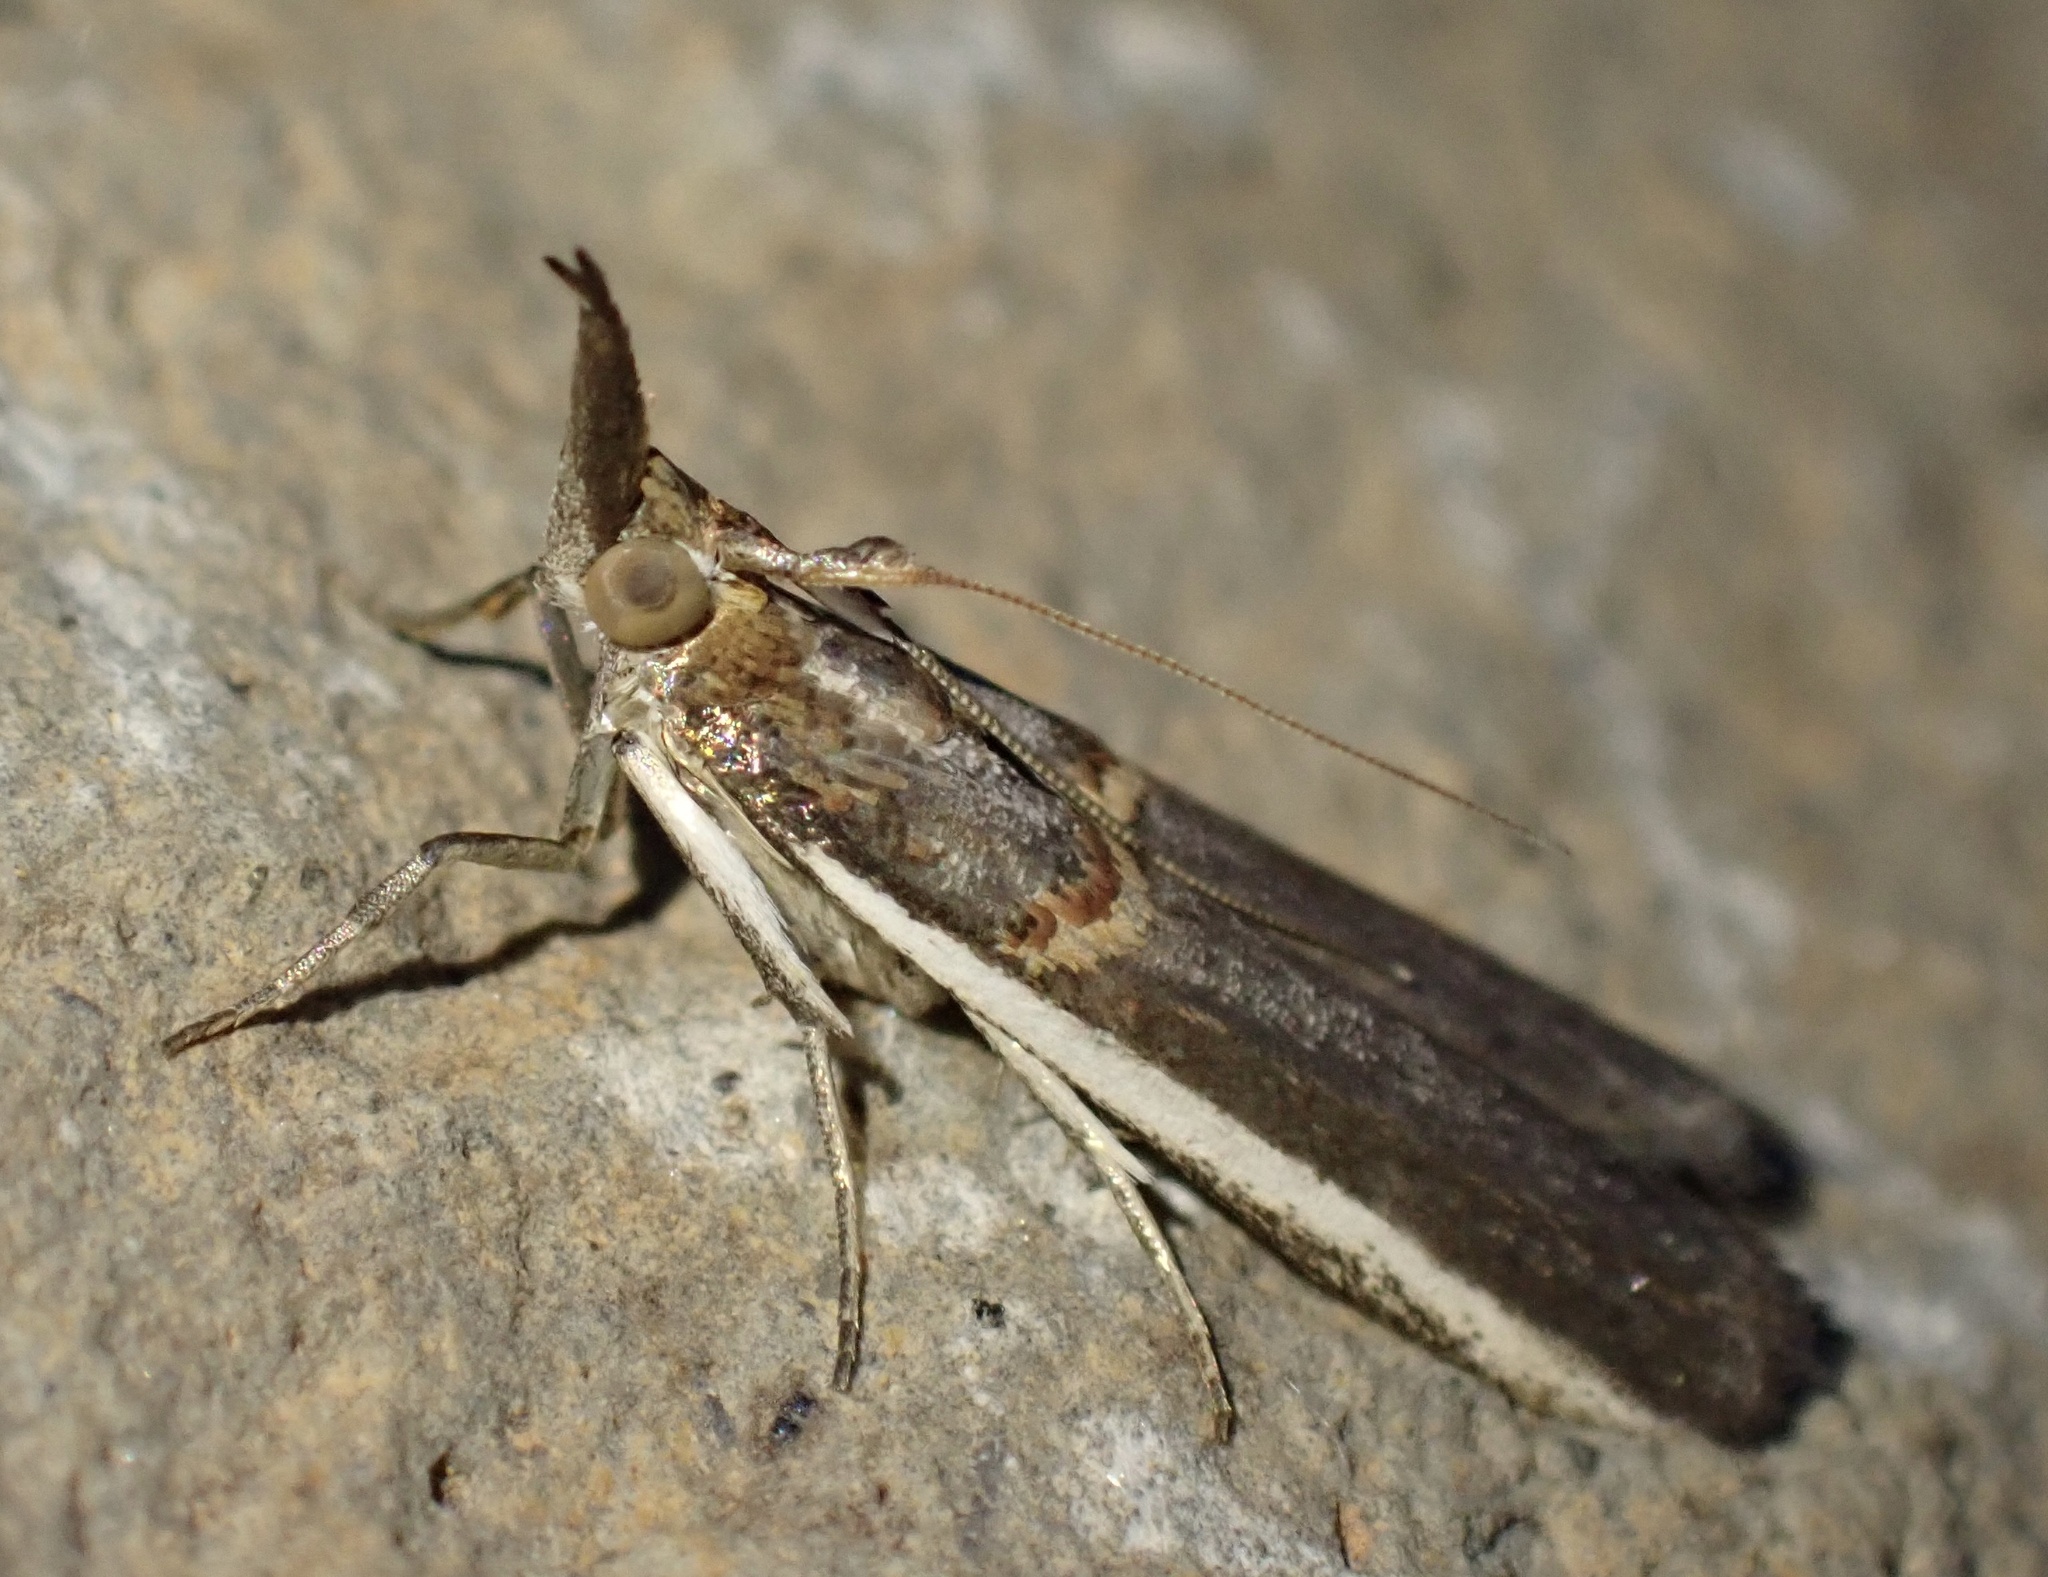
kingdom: Animalia
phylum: Arthropoda
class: Insecta
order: Lepidoptera
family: Pyralidae
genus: Etiella
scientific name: Etiella zinckenella
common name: Gold-banded etiella moth
